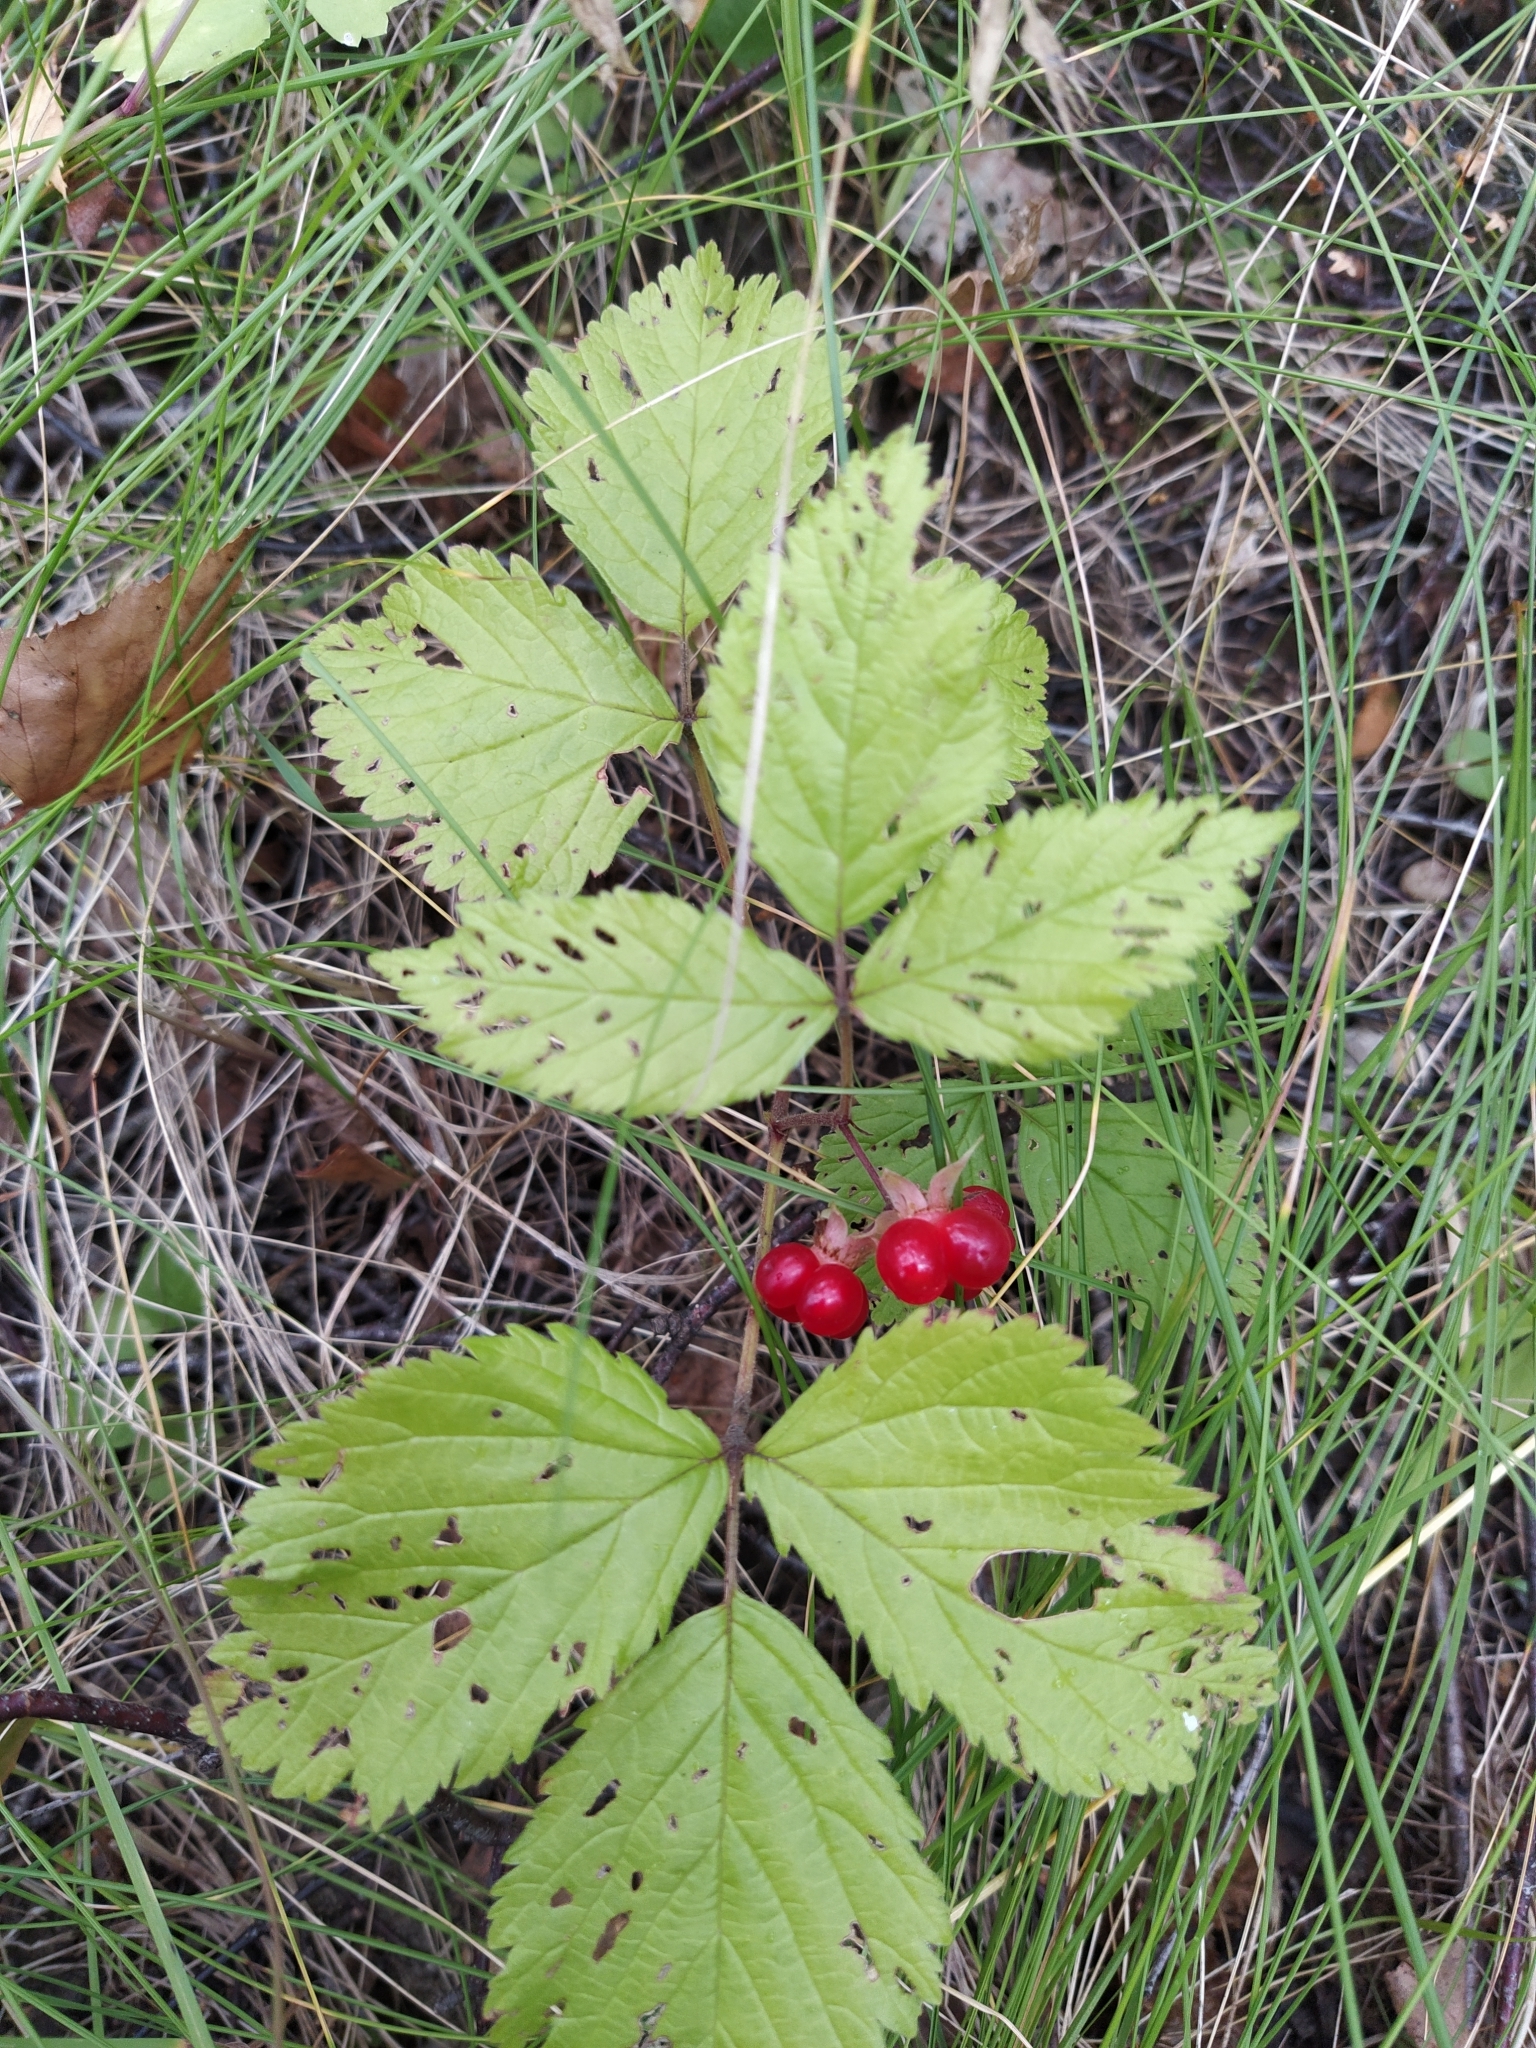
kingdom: Plantae
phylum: Tracheophyta
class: Magnoliopsida
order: Rosales
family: Rosaceae
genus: Rubus
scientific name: Rubus saxatilis
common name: Stone bramble
